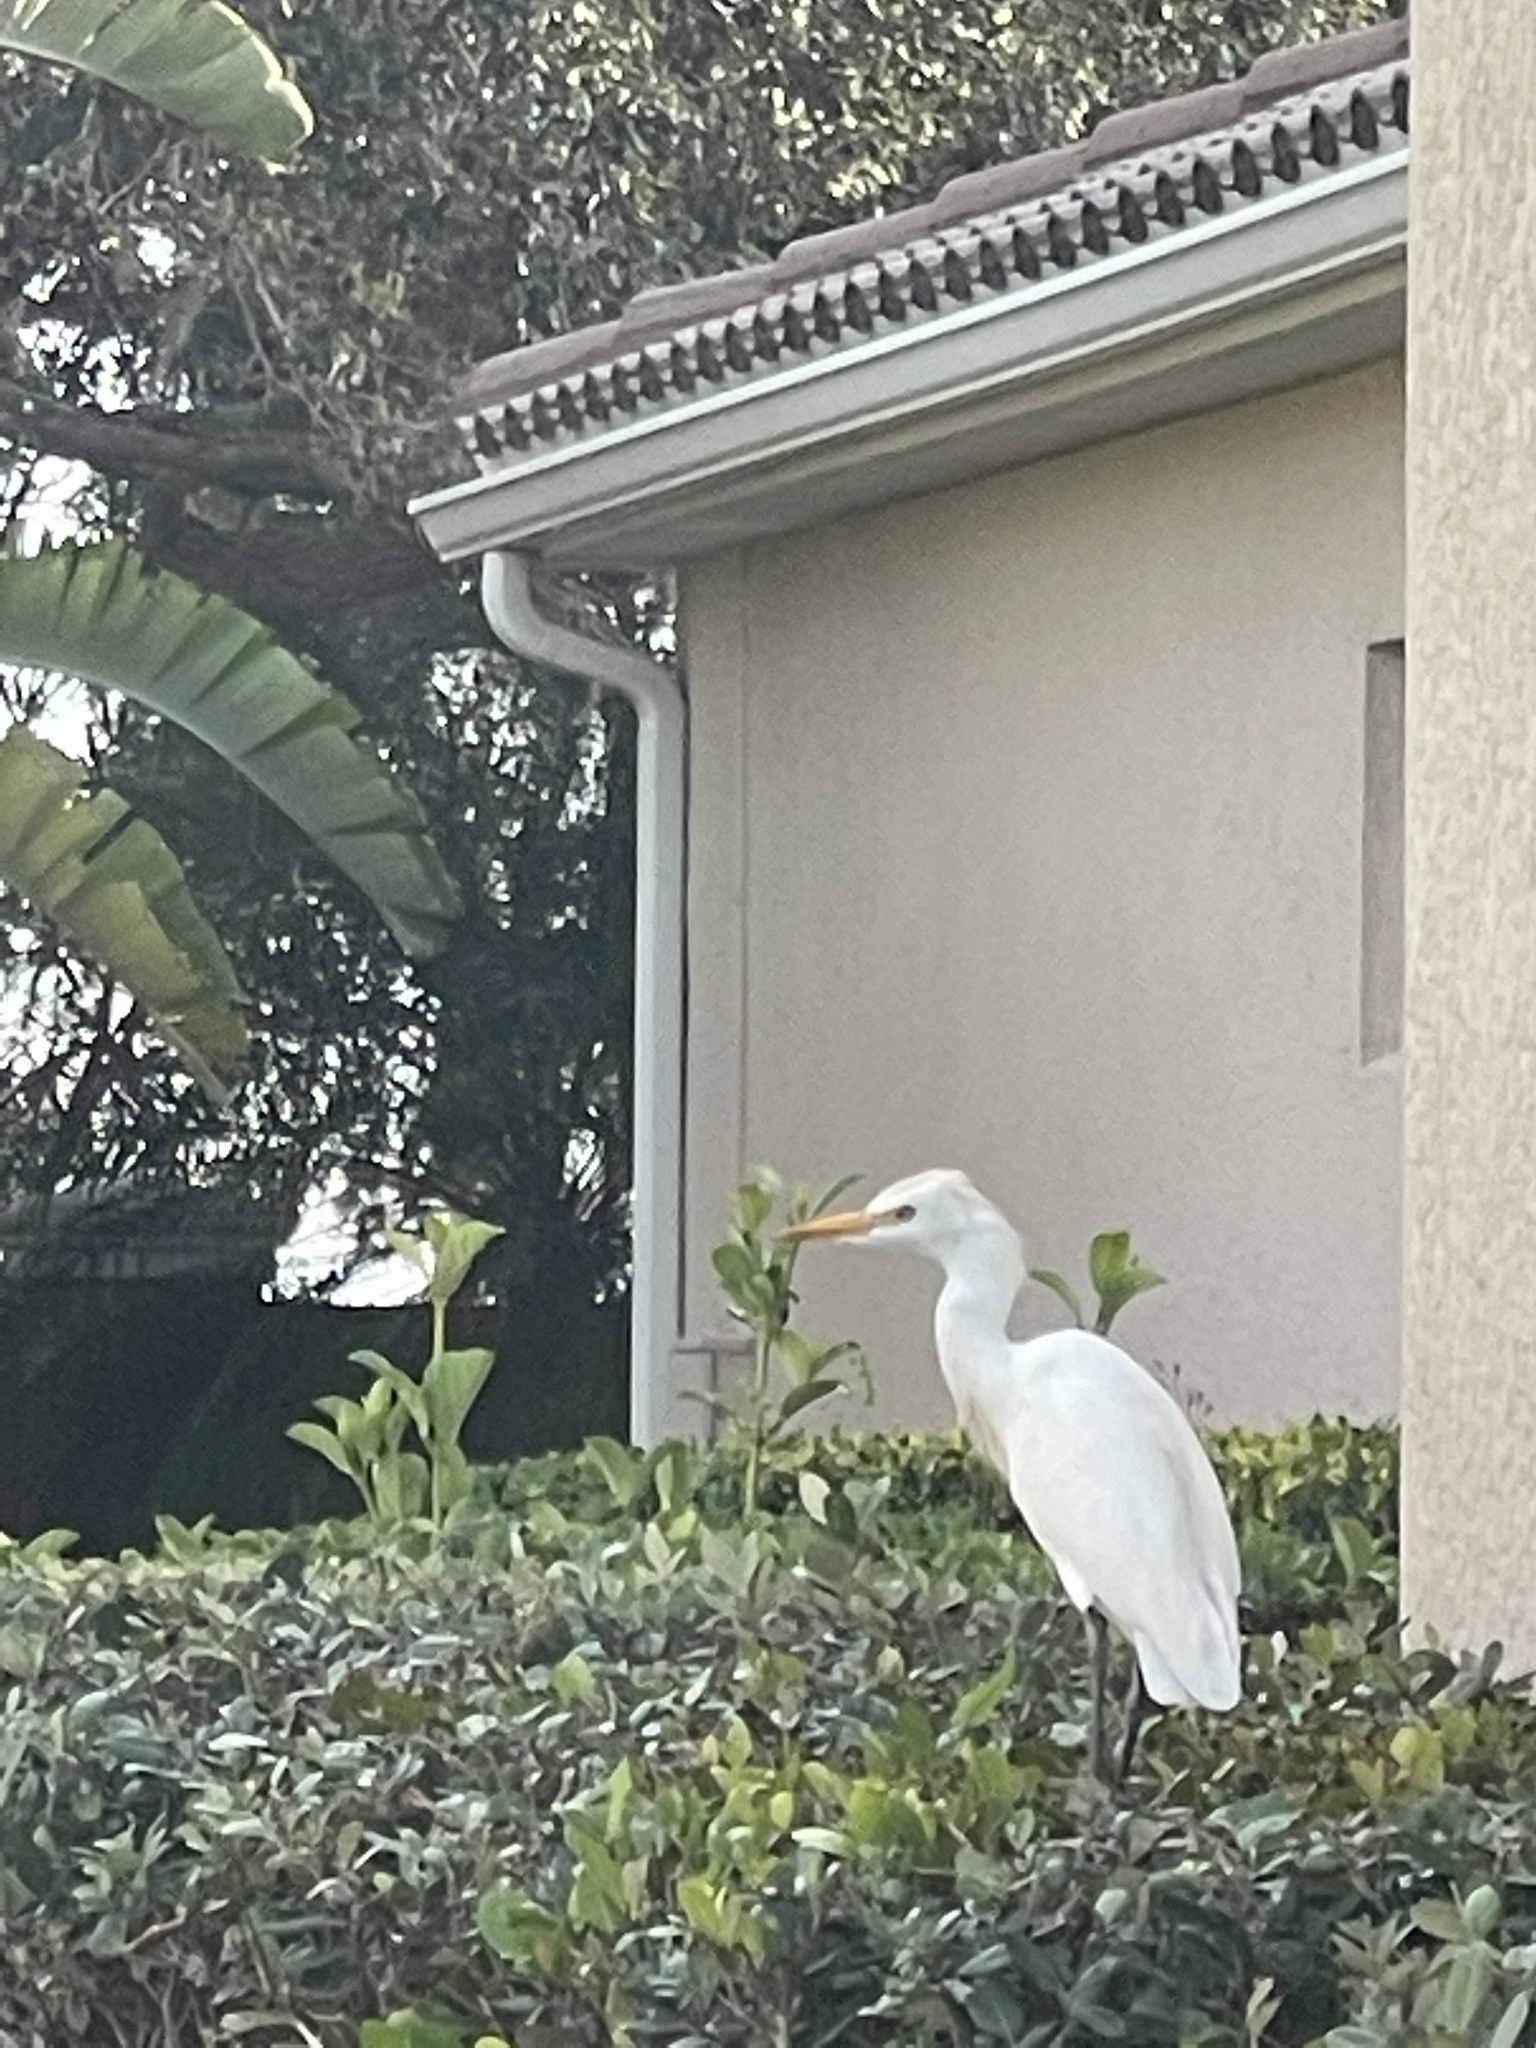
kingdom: Animalia
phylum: Chordata
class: Aves
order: Pelecaniformes
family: Ardeidae
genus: Bubulcus
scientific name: Bubulcus ibis
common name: Cattle egret
